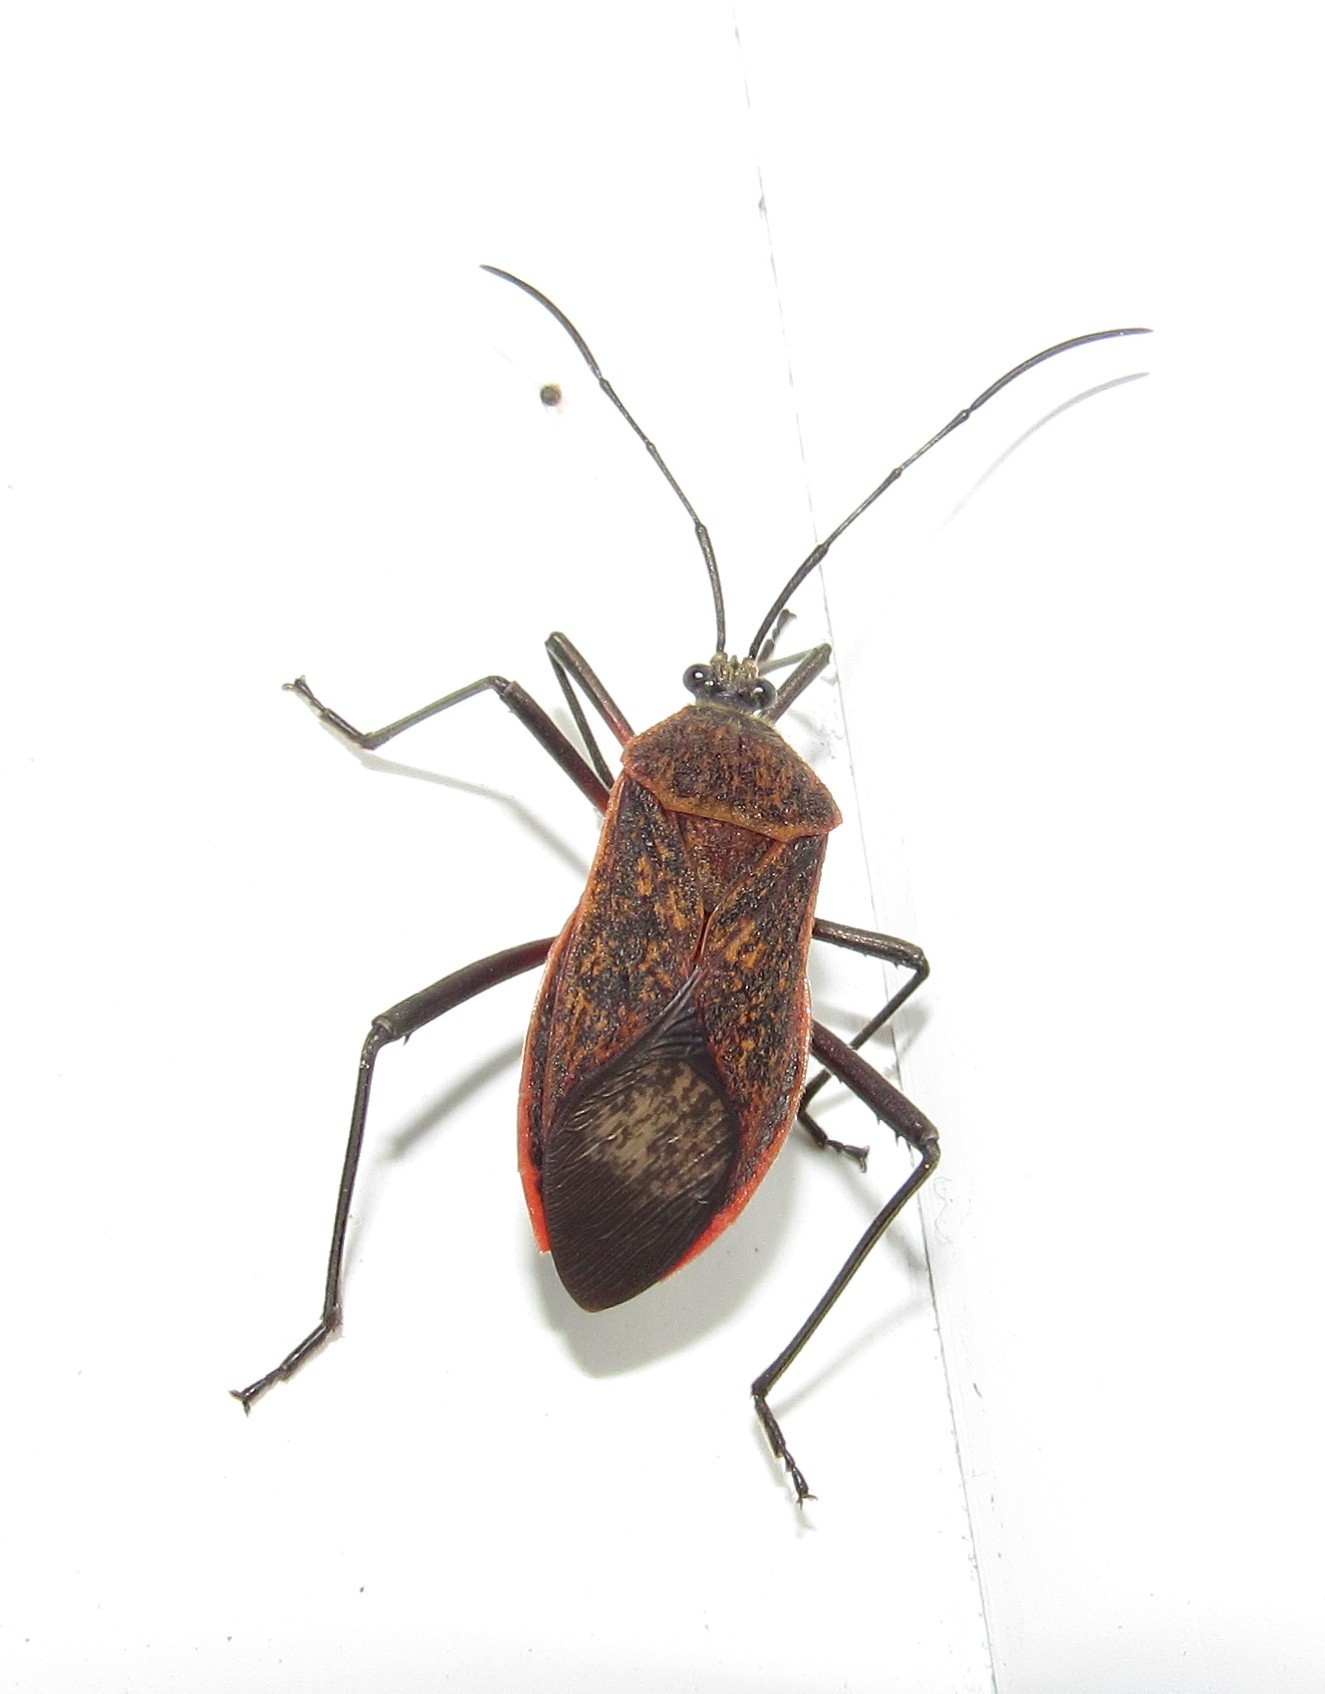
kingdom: Animalia
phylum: Arthropoda
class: Insecta
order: Hemiptera
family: Coreidae
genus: Laminiceps
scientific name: Laminiceps fenestratus
